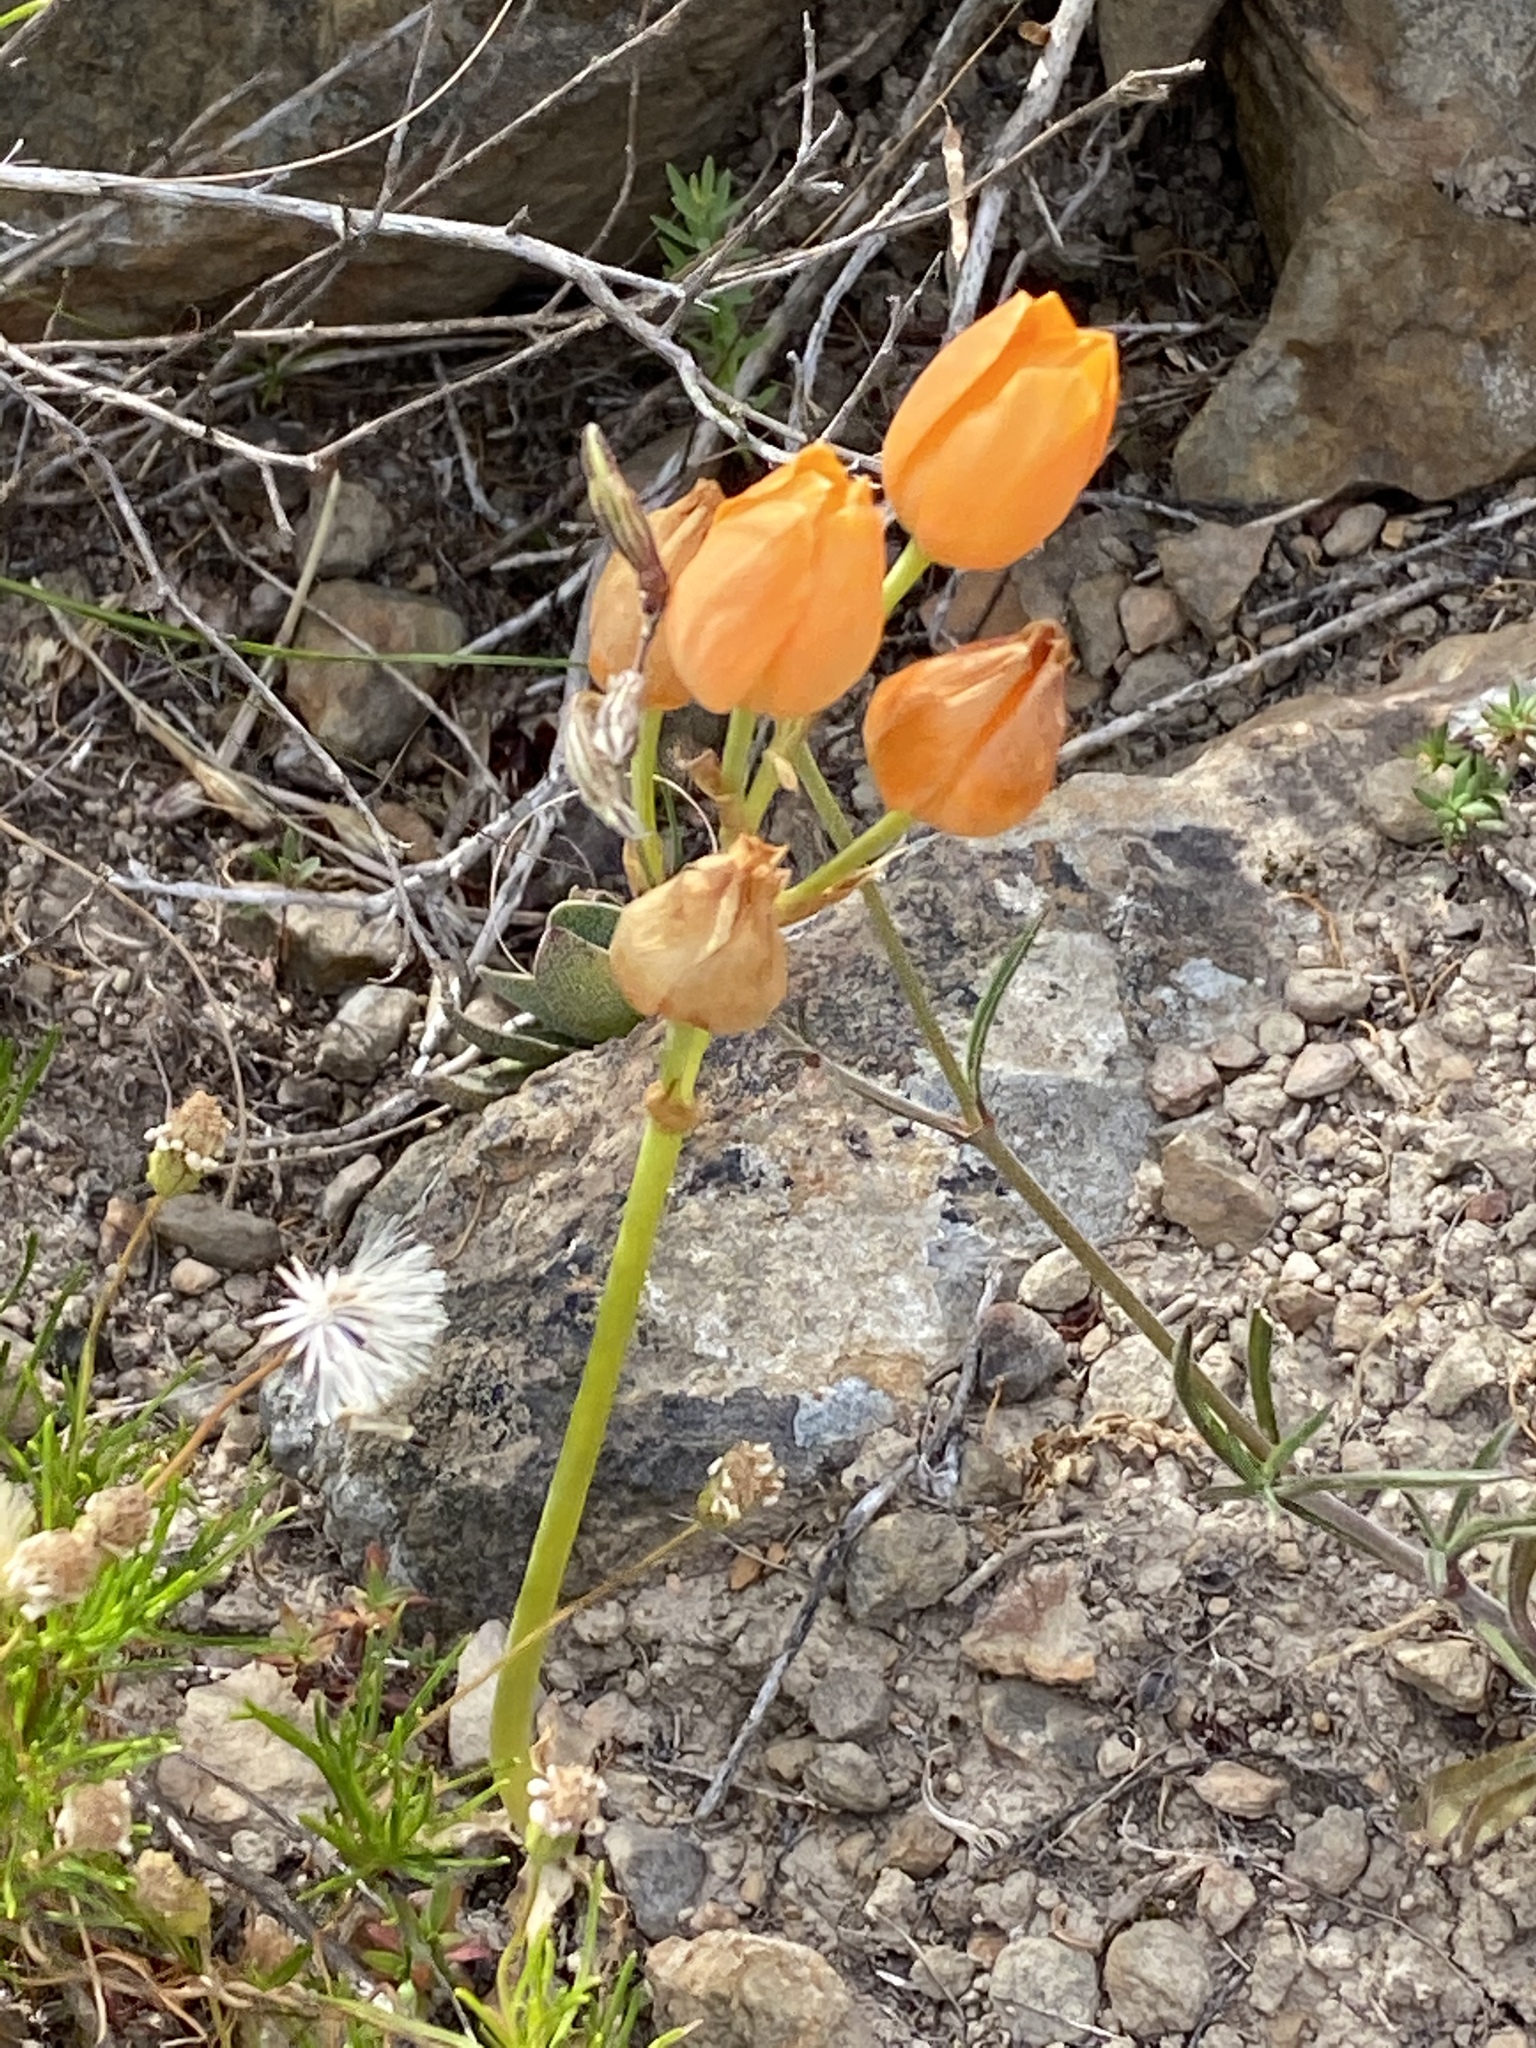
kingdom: Plantae
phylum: Tracheophyta
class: Liliopsida
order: Asparagales
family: Asparagaceae
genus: Ornithogalum
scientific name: Ornithogalum dubium
